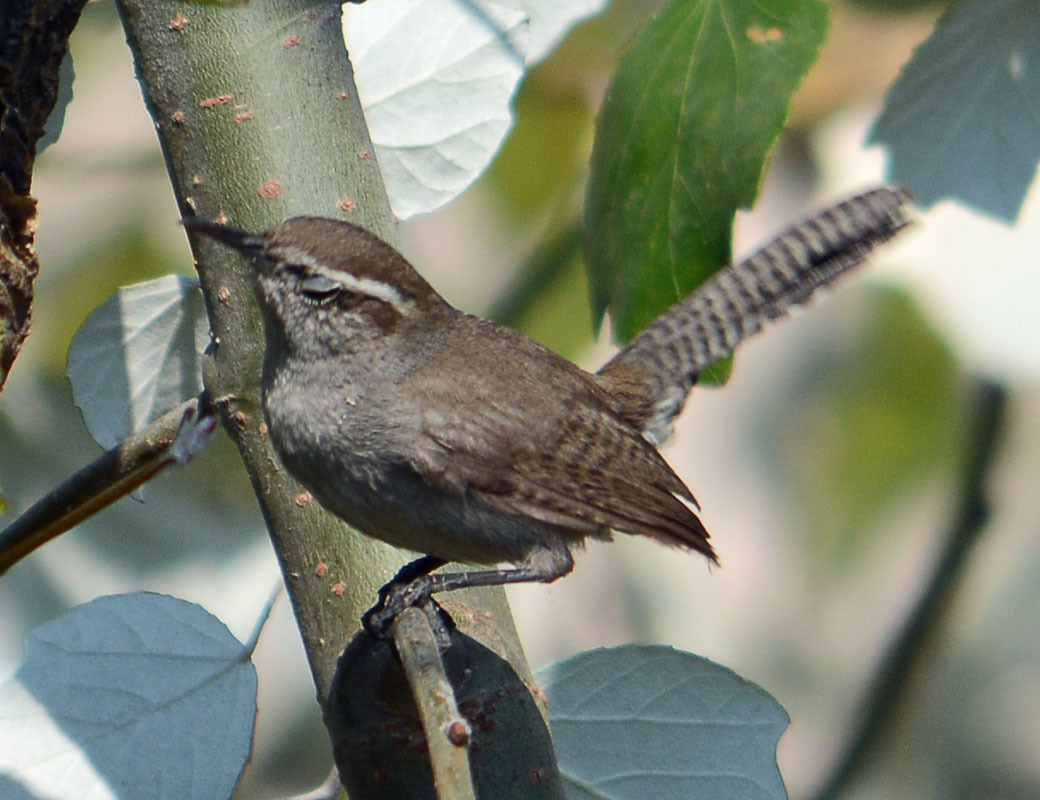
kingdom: Animalia
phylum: Chordata
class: Aves
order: Passeriformes
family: Troglodytidae
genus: Thryomanes
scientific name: Thryomanes bewickii
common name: Bewick's wren
